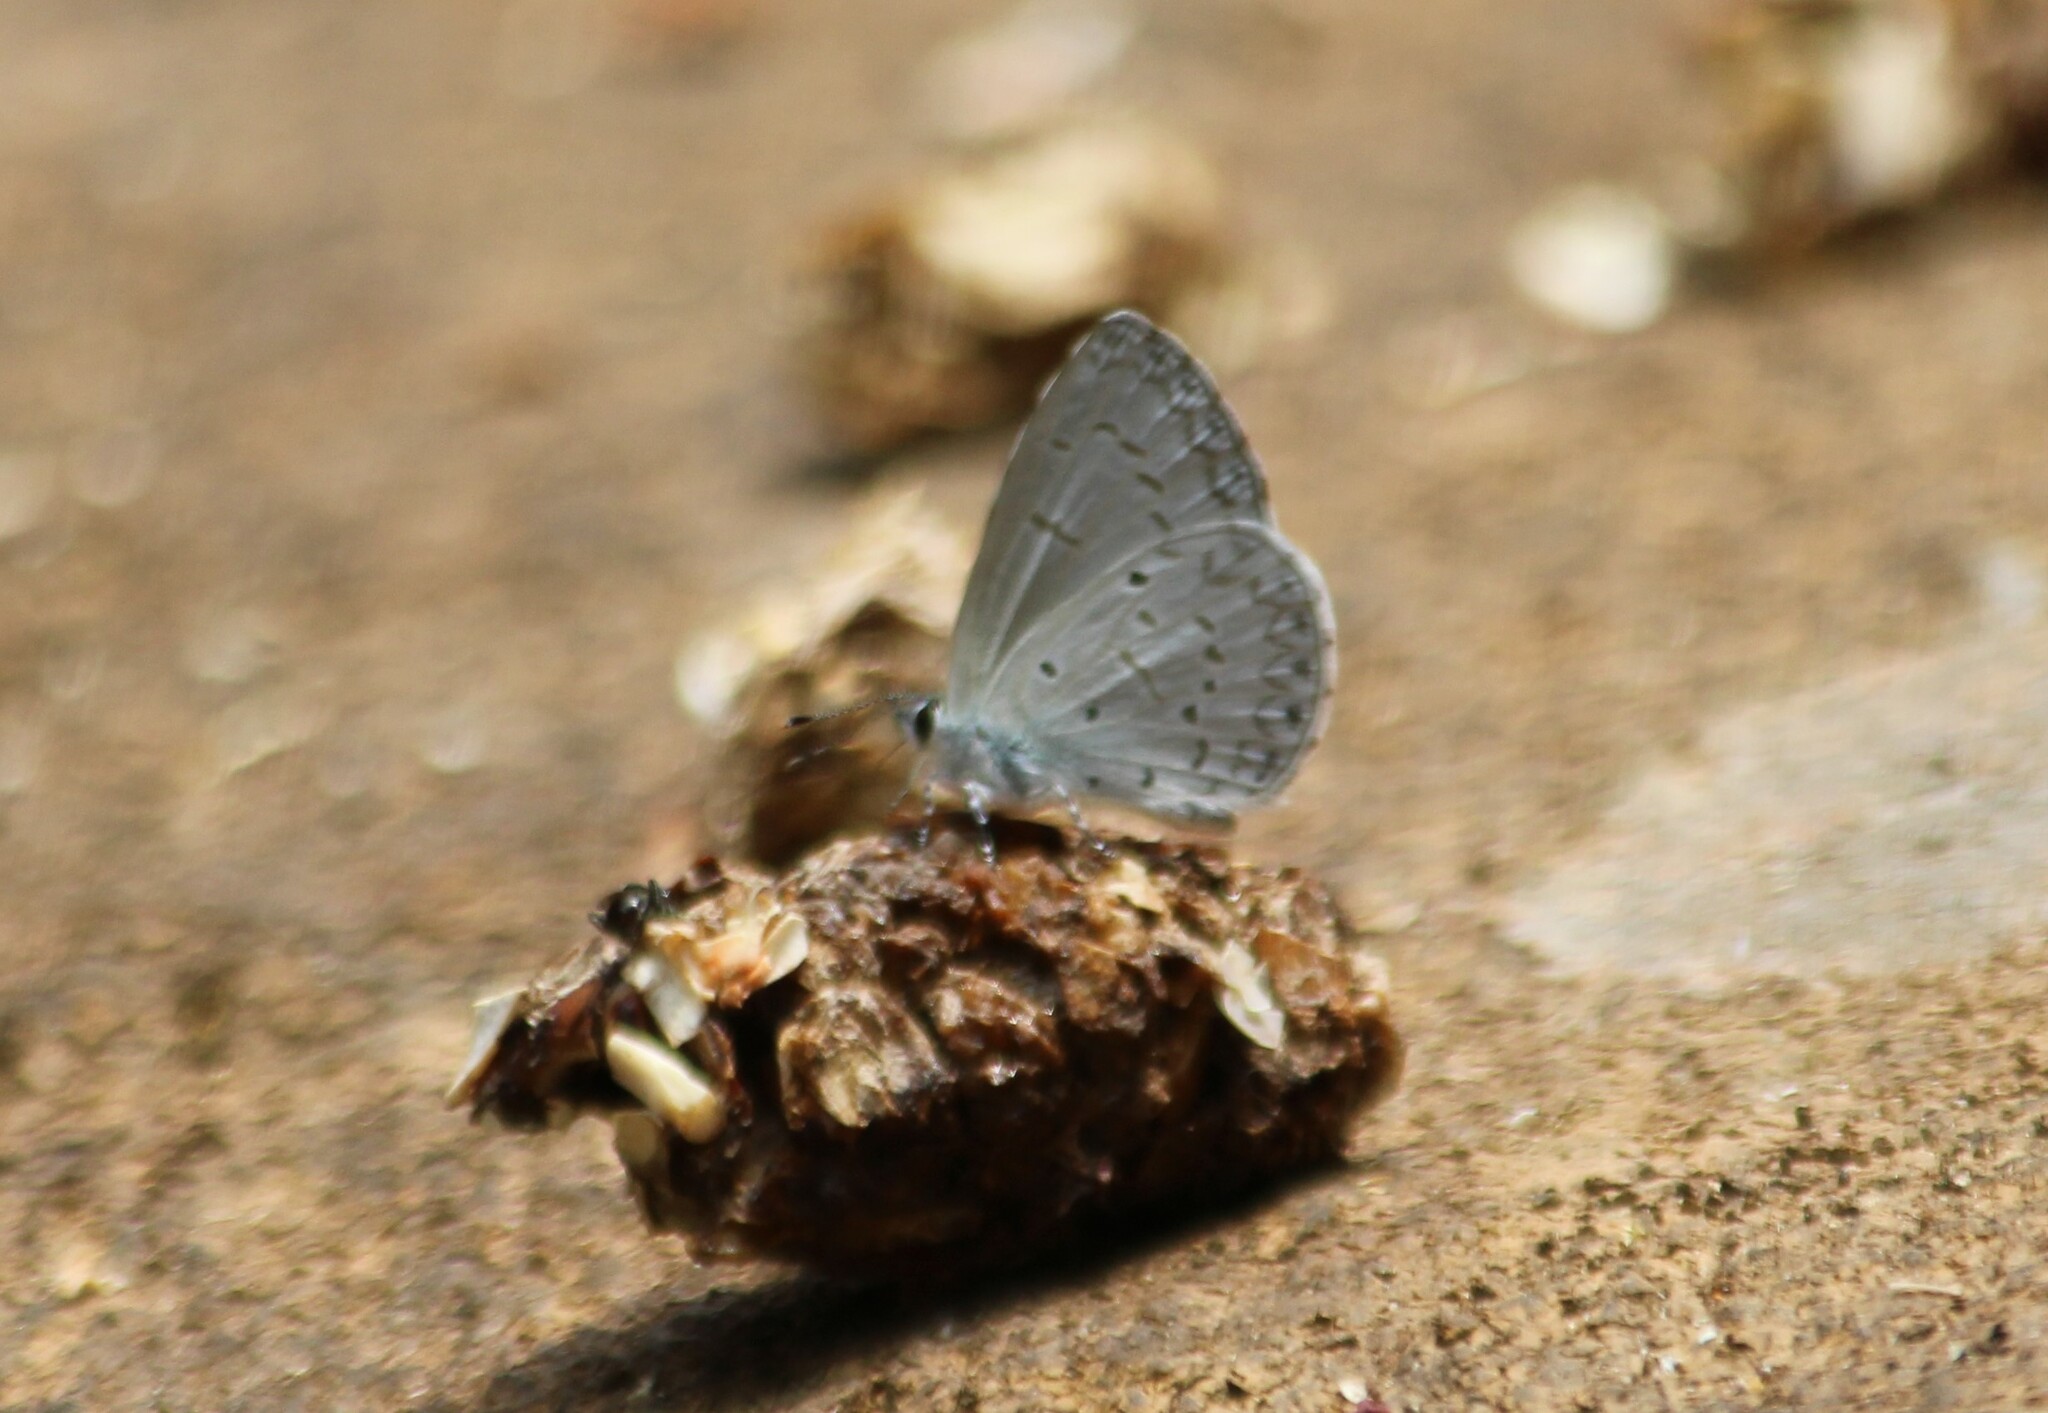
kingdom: Animalia
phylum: Arthropoda
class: Insecta
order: Lepidoptera
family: Lycaenidae
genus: Celastrina
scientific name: Celastrina lavendularis
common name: Plain hedge blue
